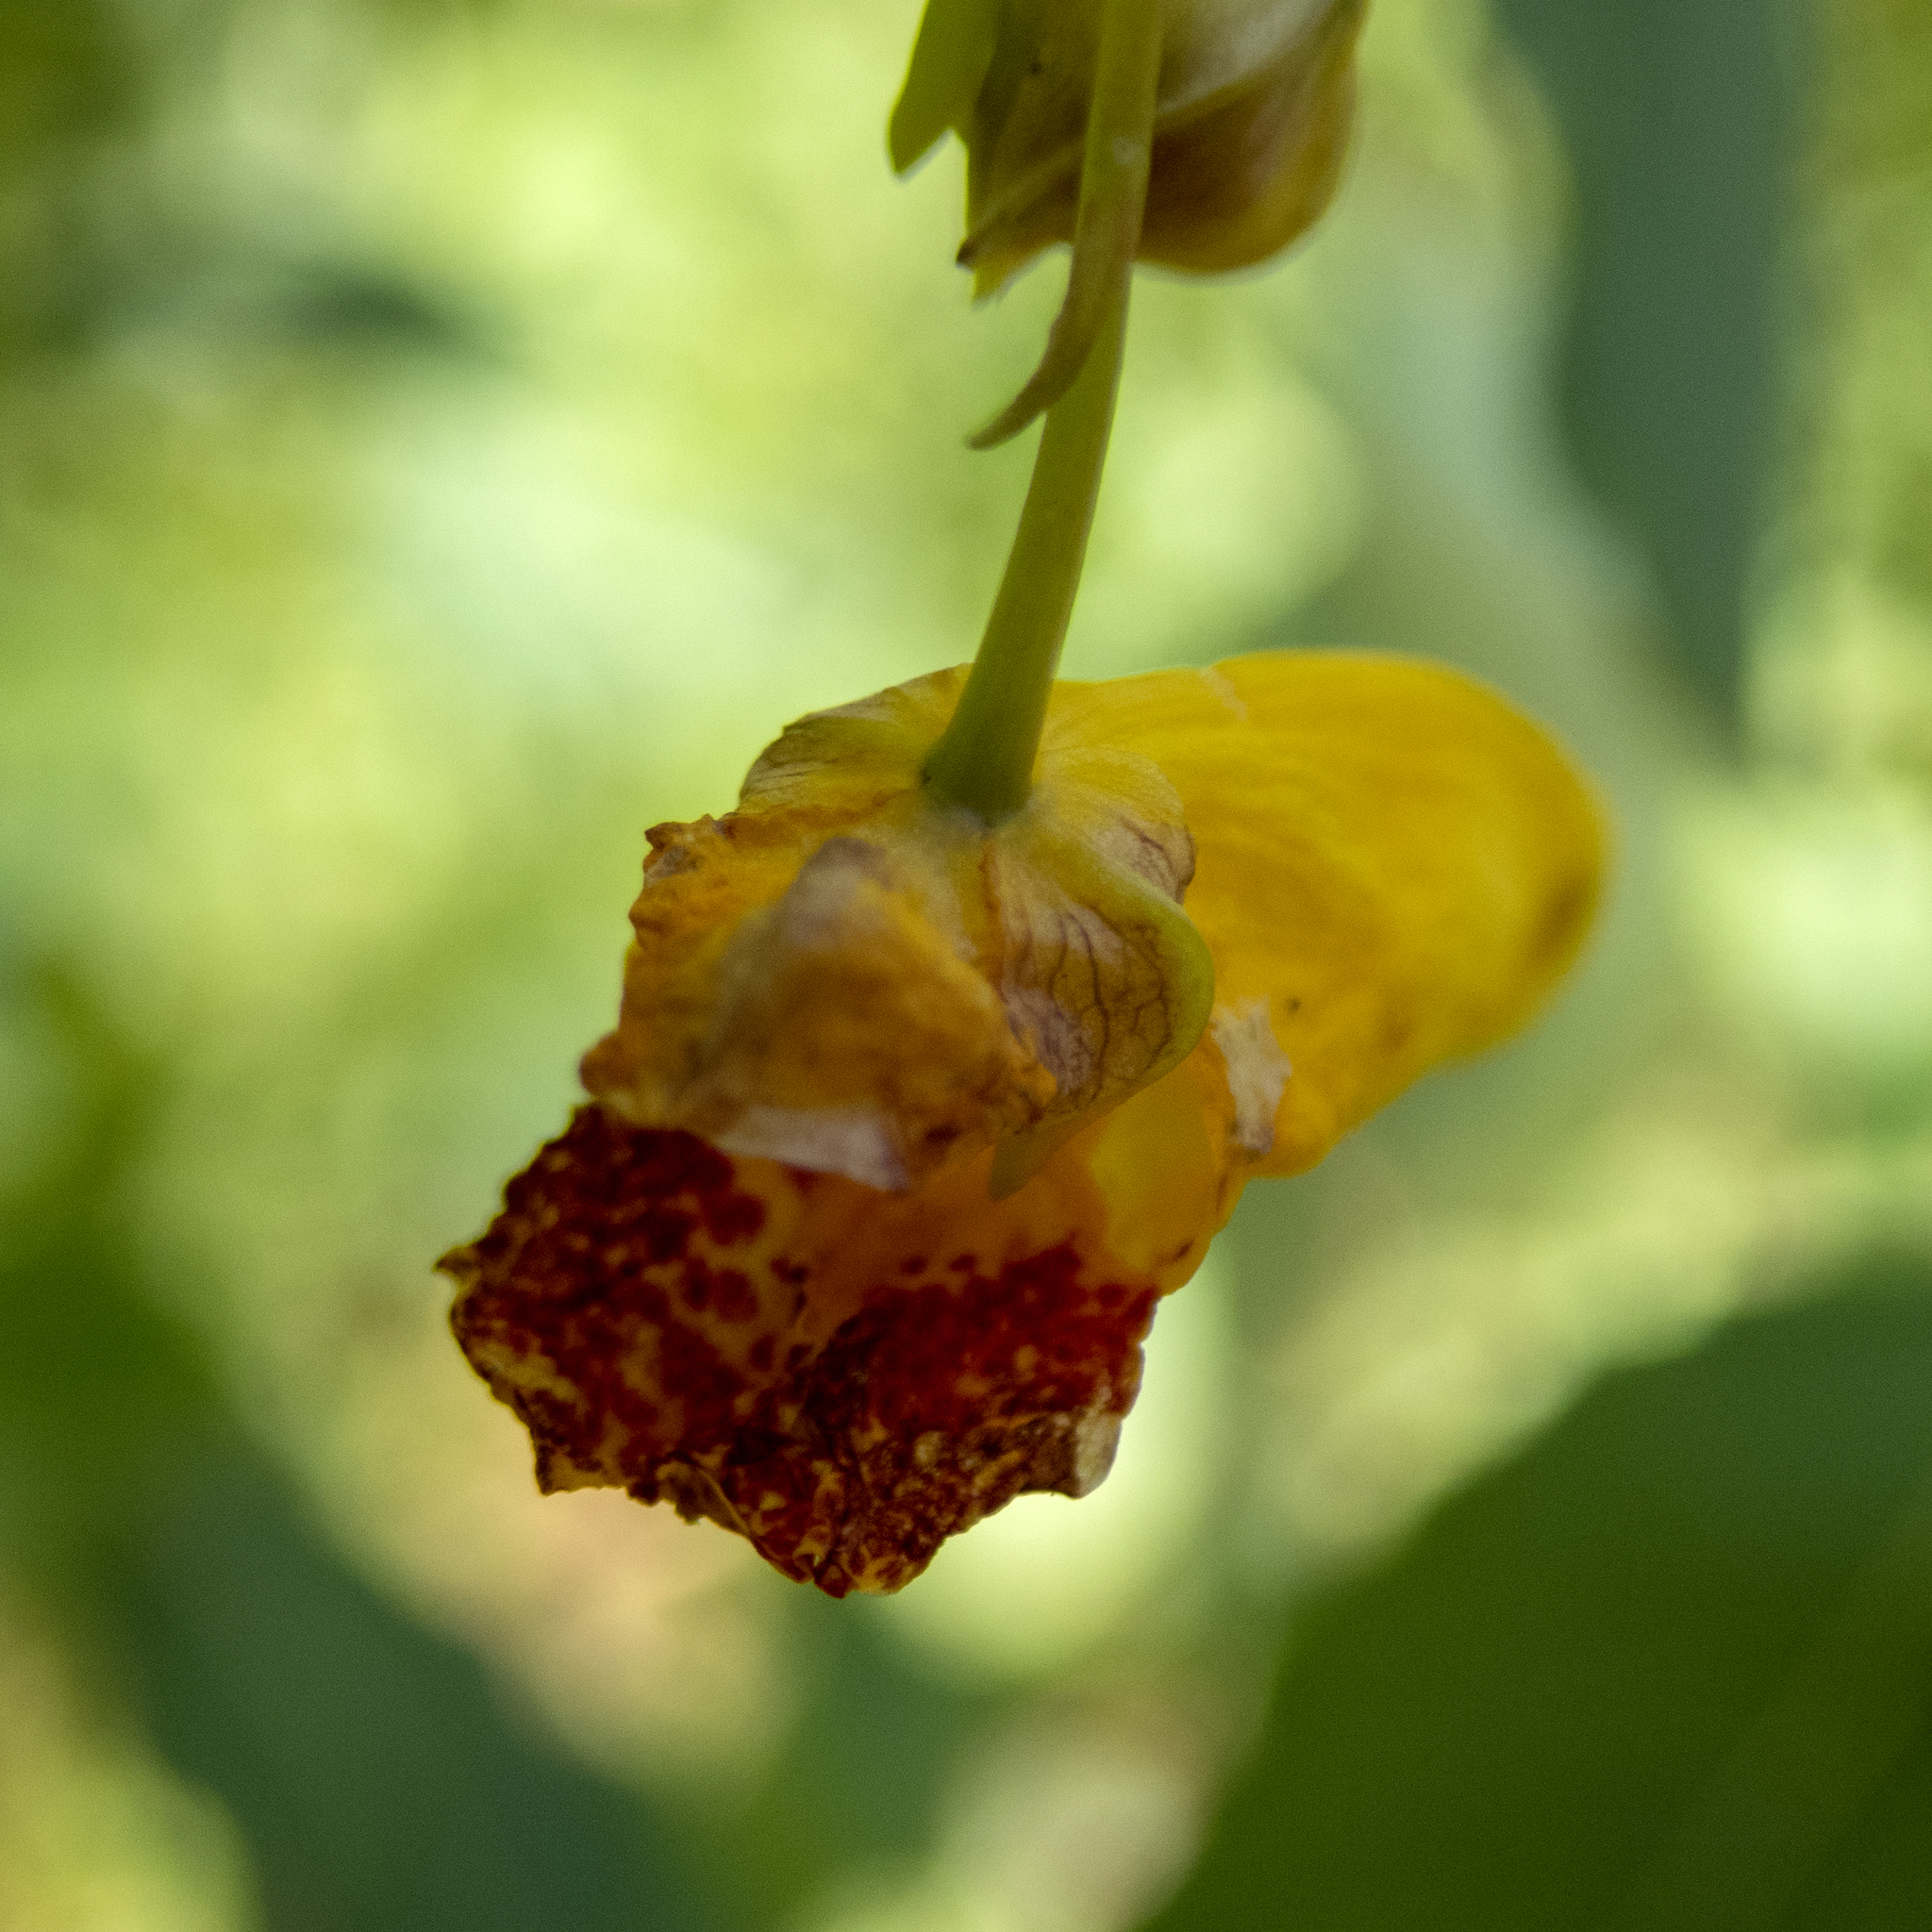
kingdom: Plantae
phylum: Tracheophyta
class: Magnoliopsida
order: Ericales
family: Balsaminaceae
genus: Impatiens
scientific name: Impatiens capensis
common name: Orange balsam
